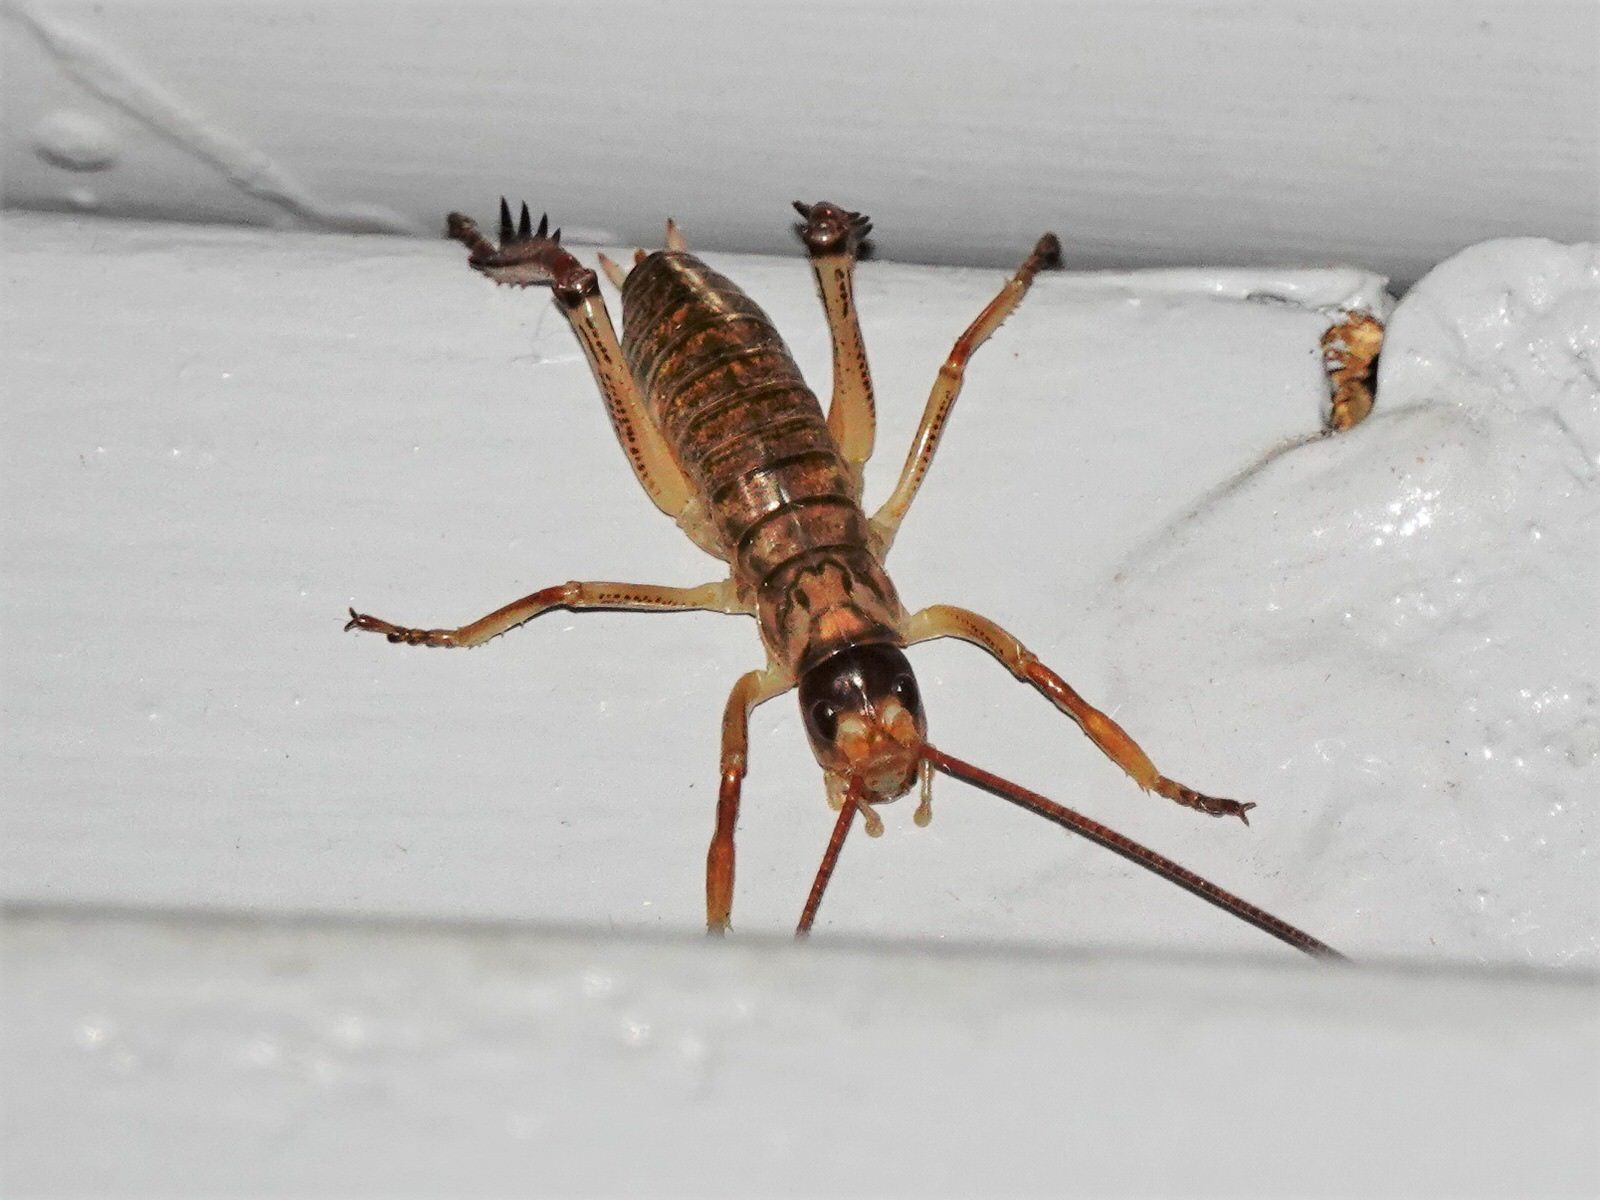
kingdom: Animalia
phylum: Arthropoda
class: Insecta
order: Orthoptera
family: Anostostomatidae
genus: Hemideina
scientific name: Hemideina thoracica
